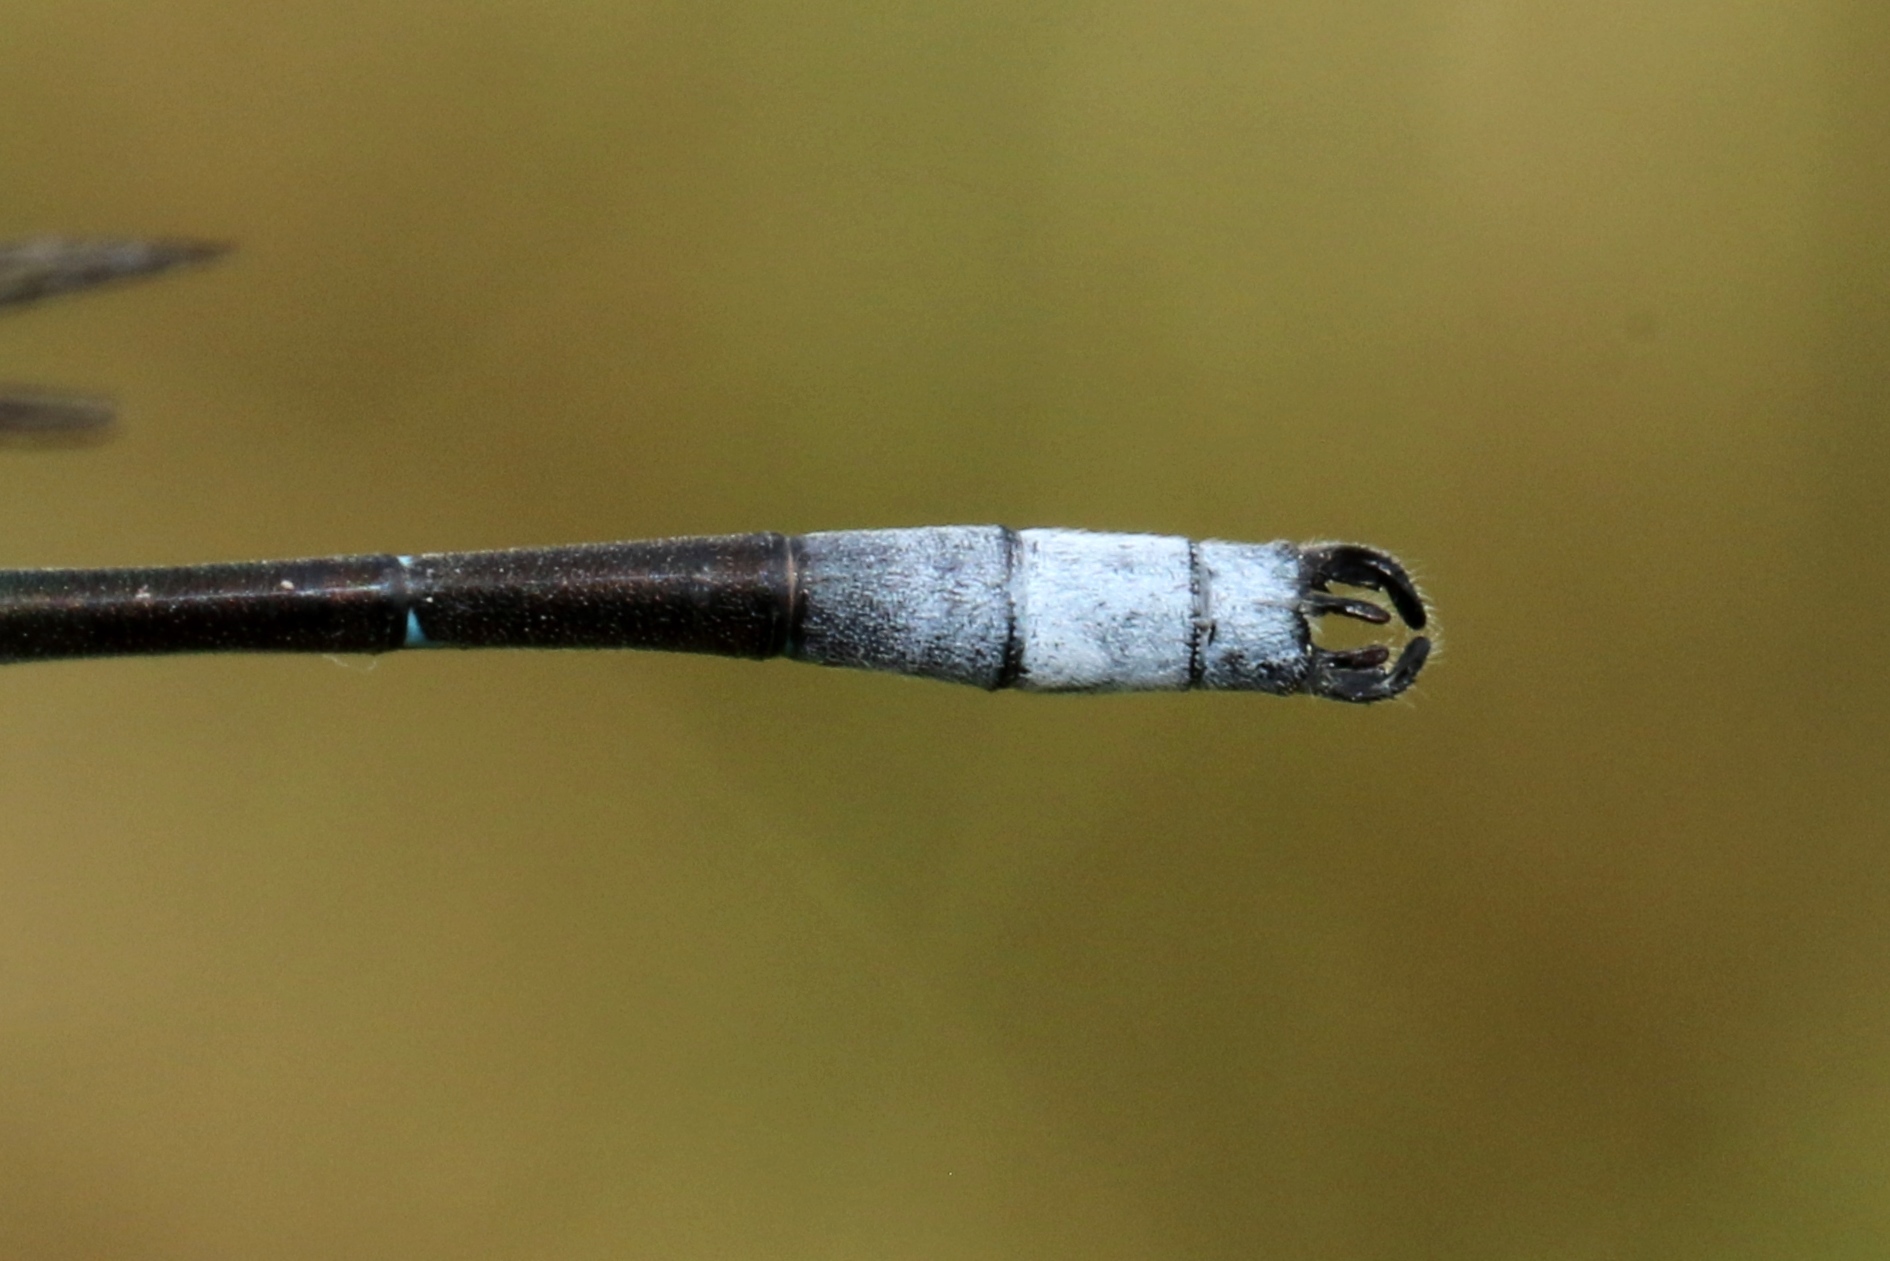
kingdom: Animalia
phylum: Arthropoda
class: Insecta
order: Odonata
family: Lestidae
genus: Lestes
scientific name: Lestes forcipatus
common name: Sweetflag spreadwing
